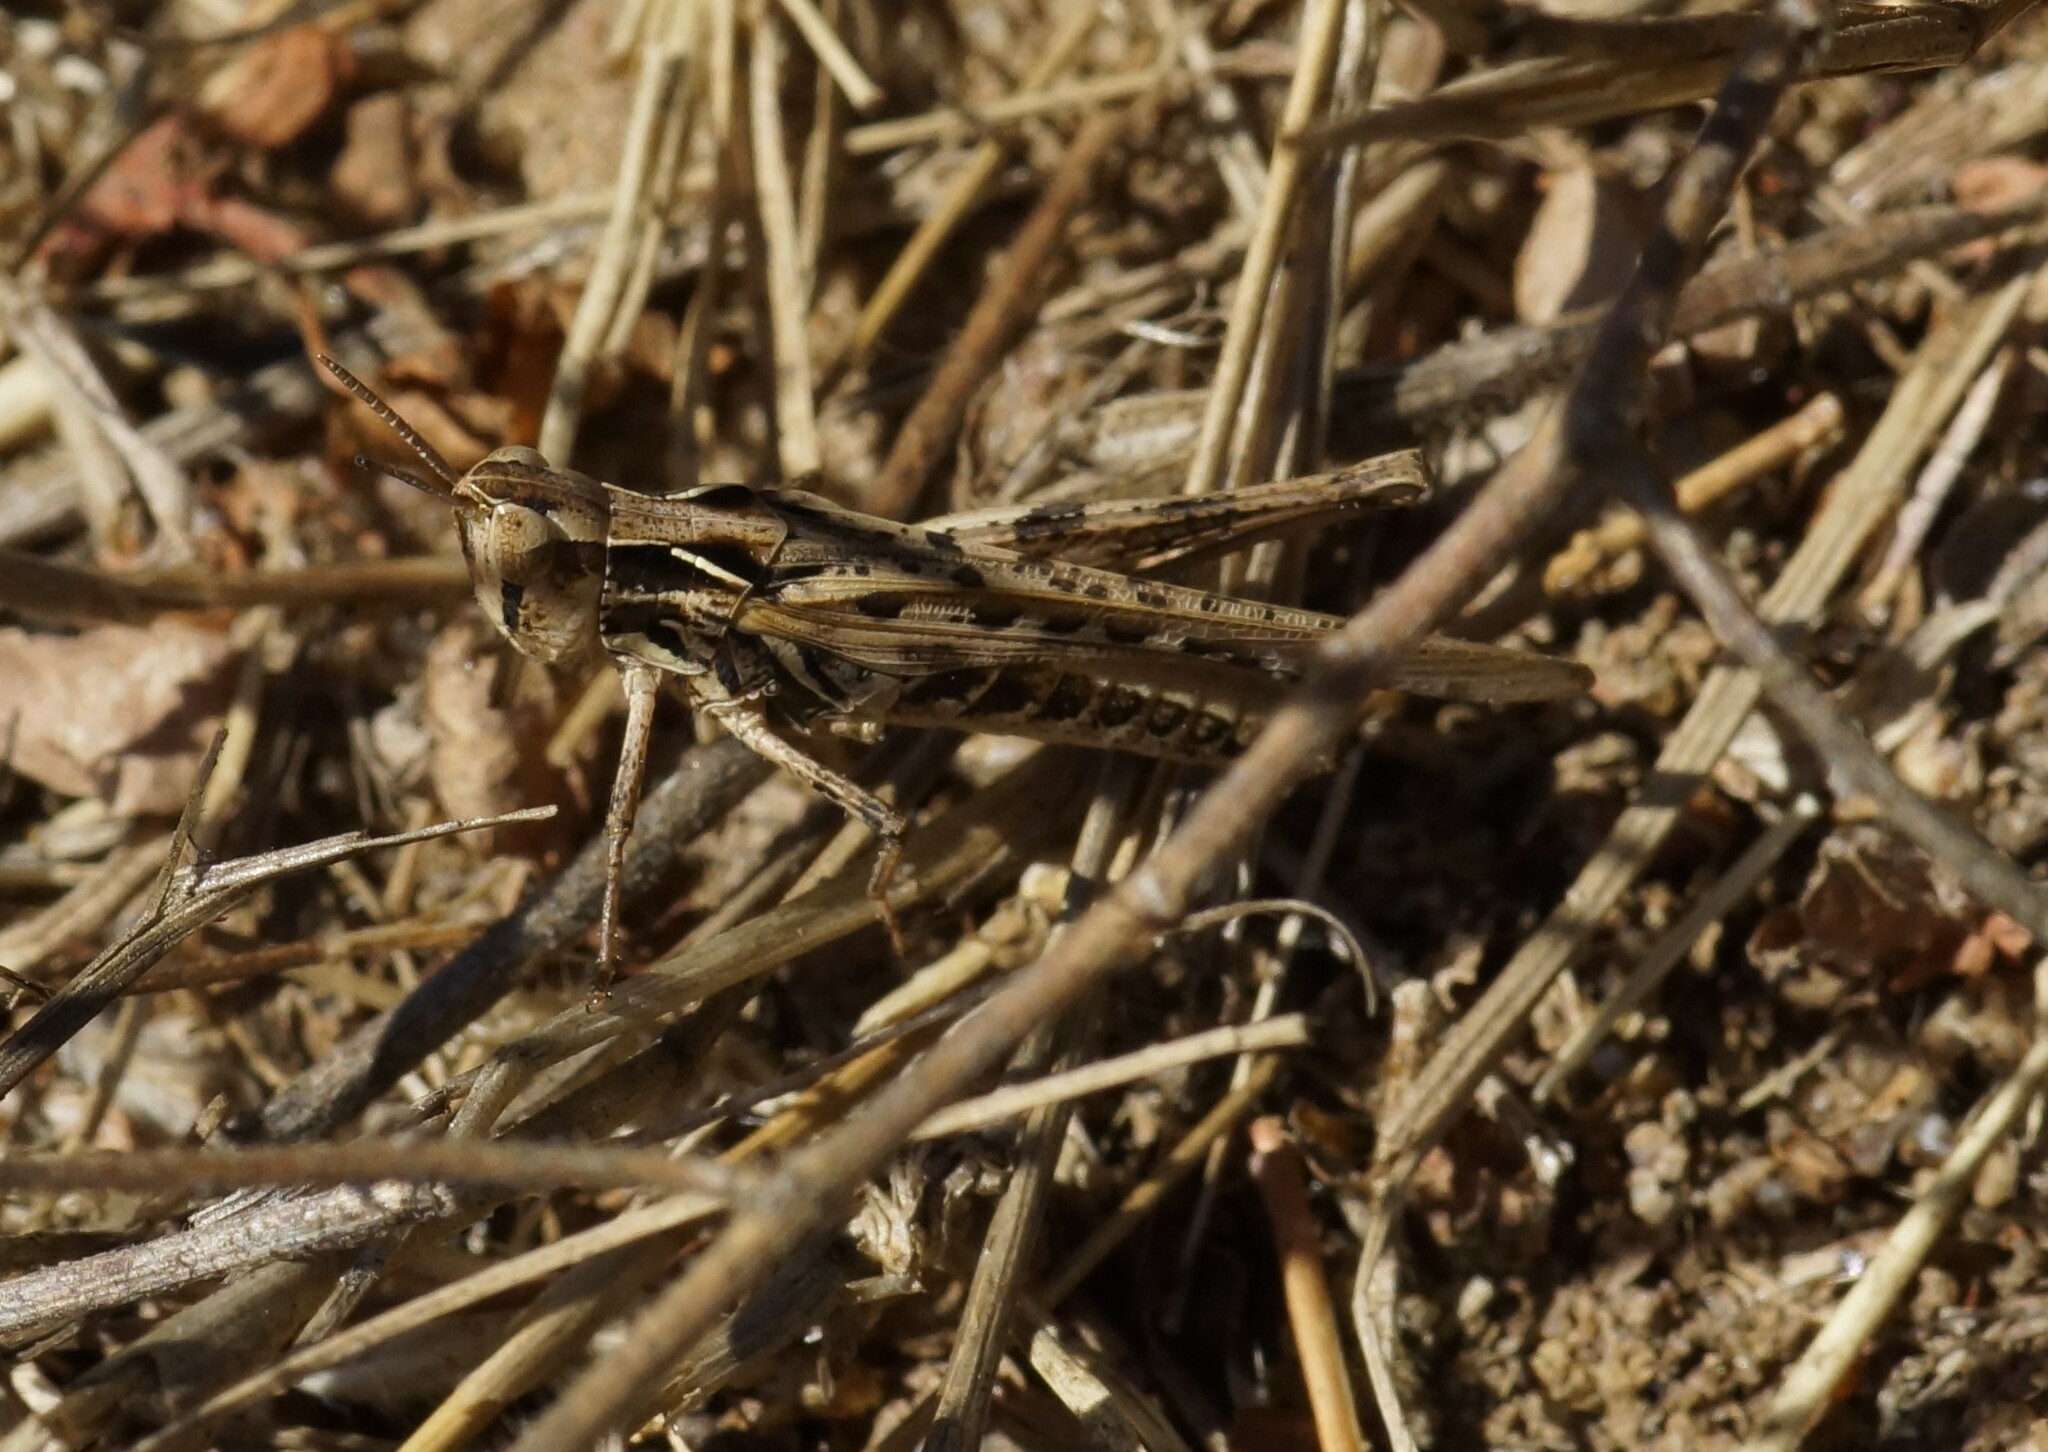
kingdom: Animalia
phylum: Arthropoda
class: Insecta
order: Orthoptera
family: Acrididae
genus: Calephorops
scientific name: Calephorops viridis
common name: Calephorops
